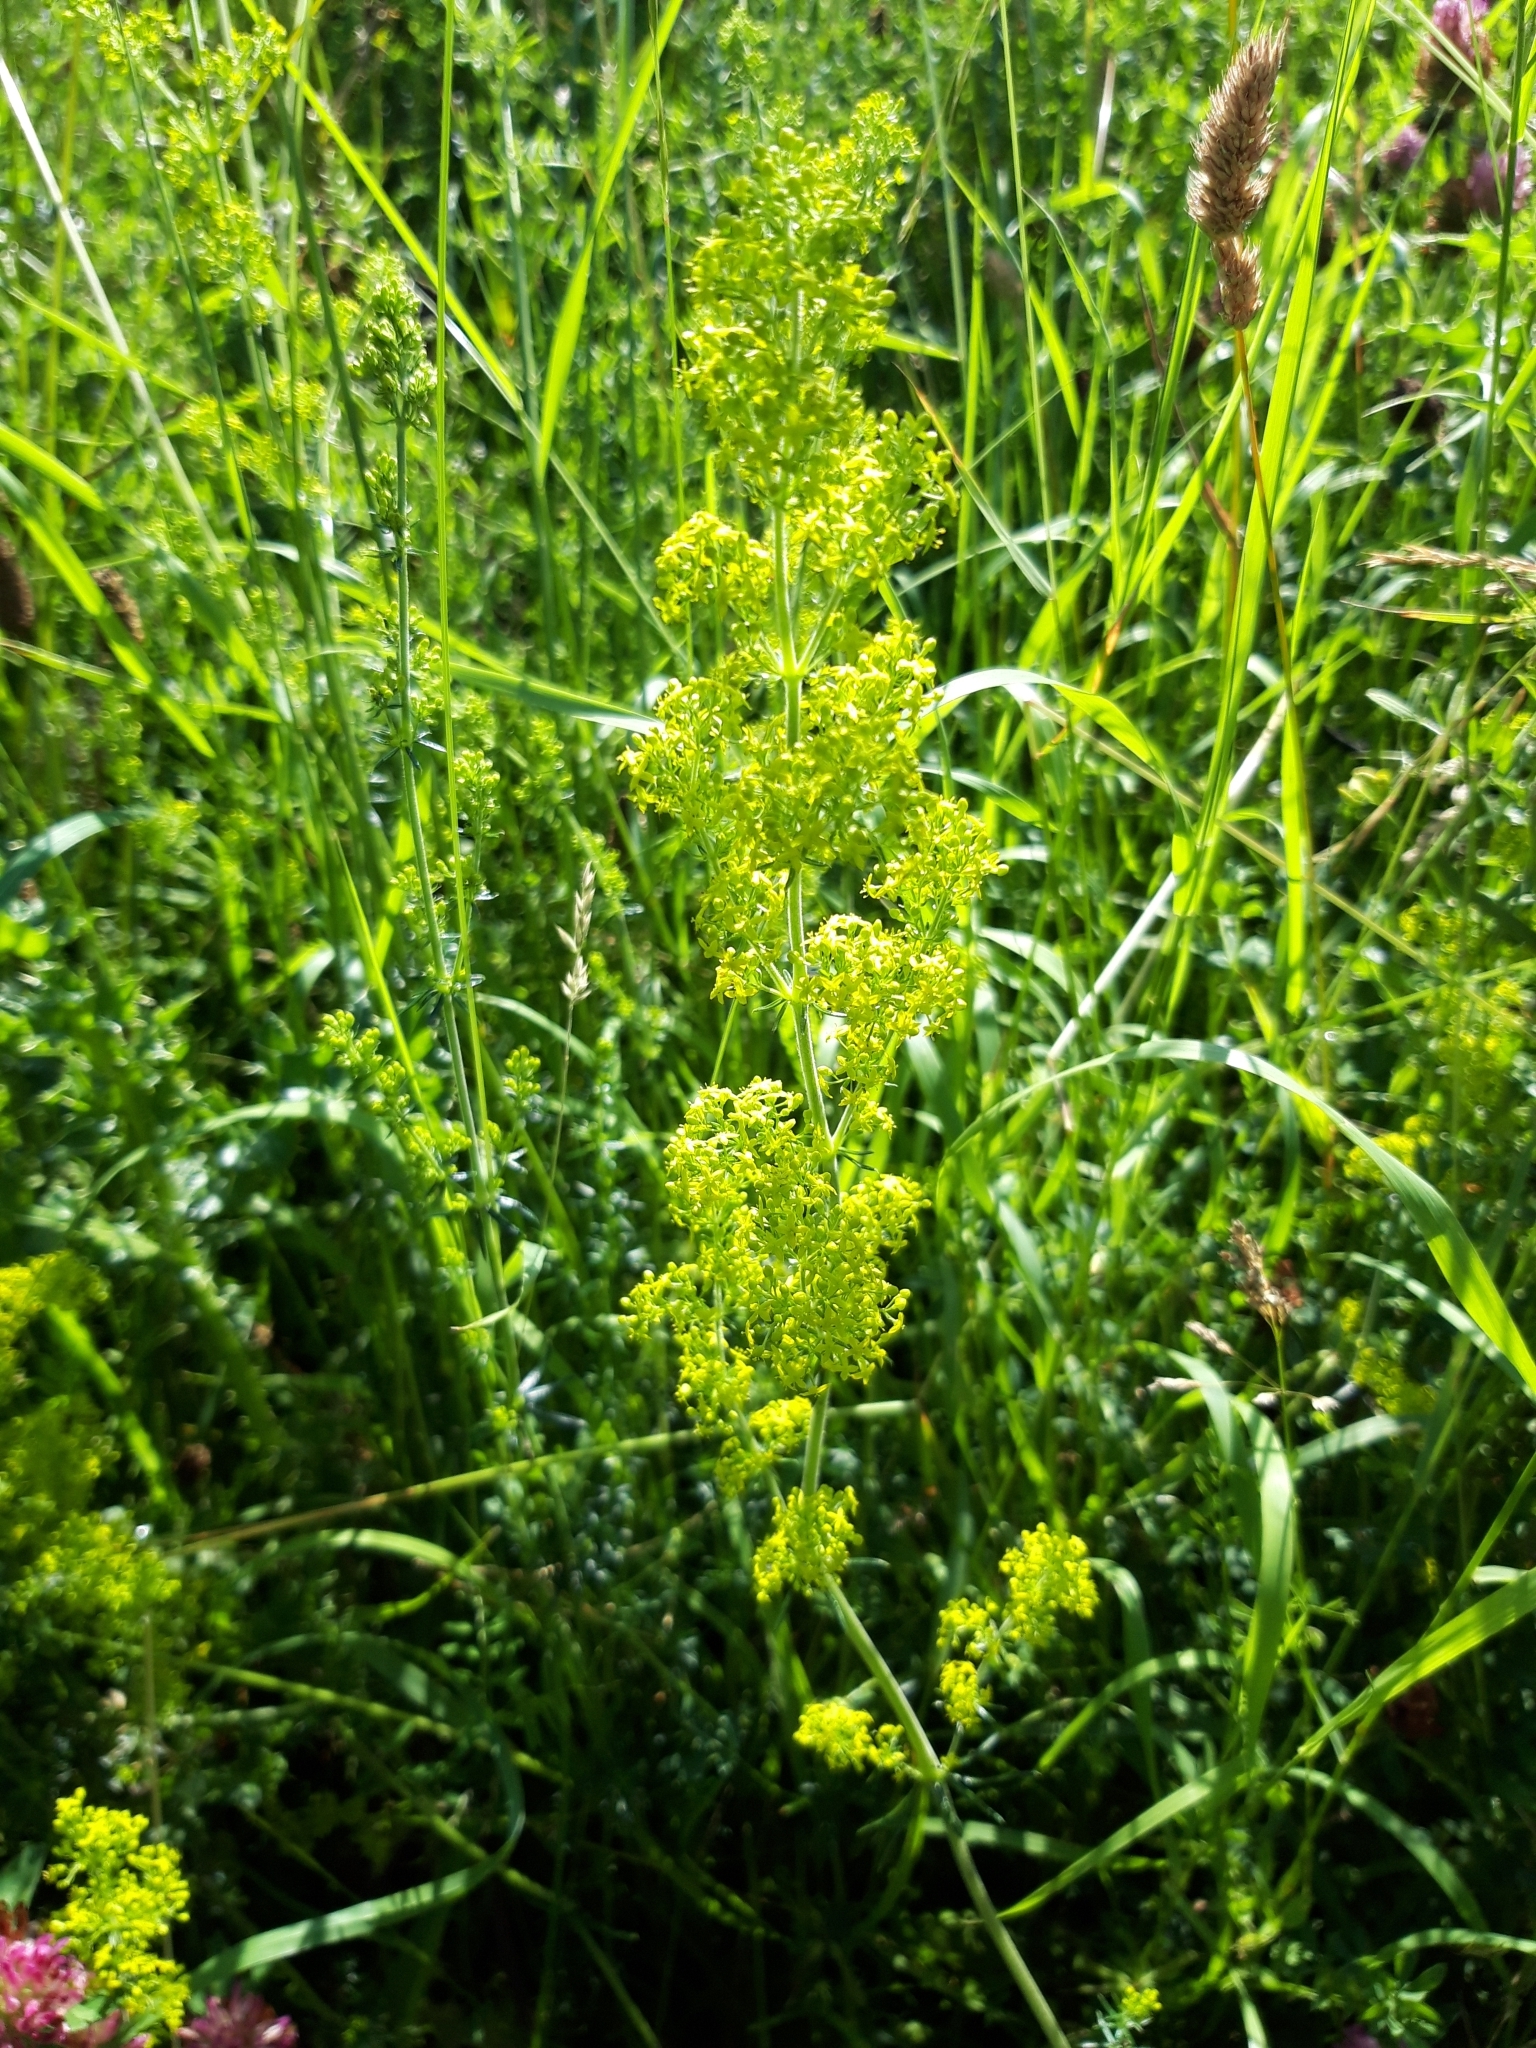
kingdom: Plantae
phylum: Tracheophyta
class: Magnoliopsida
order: Gentianales
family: Rubiaceae
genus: Galium
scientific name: Galium verum
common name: Lady's bedstraw
